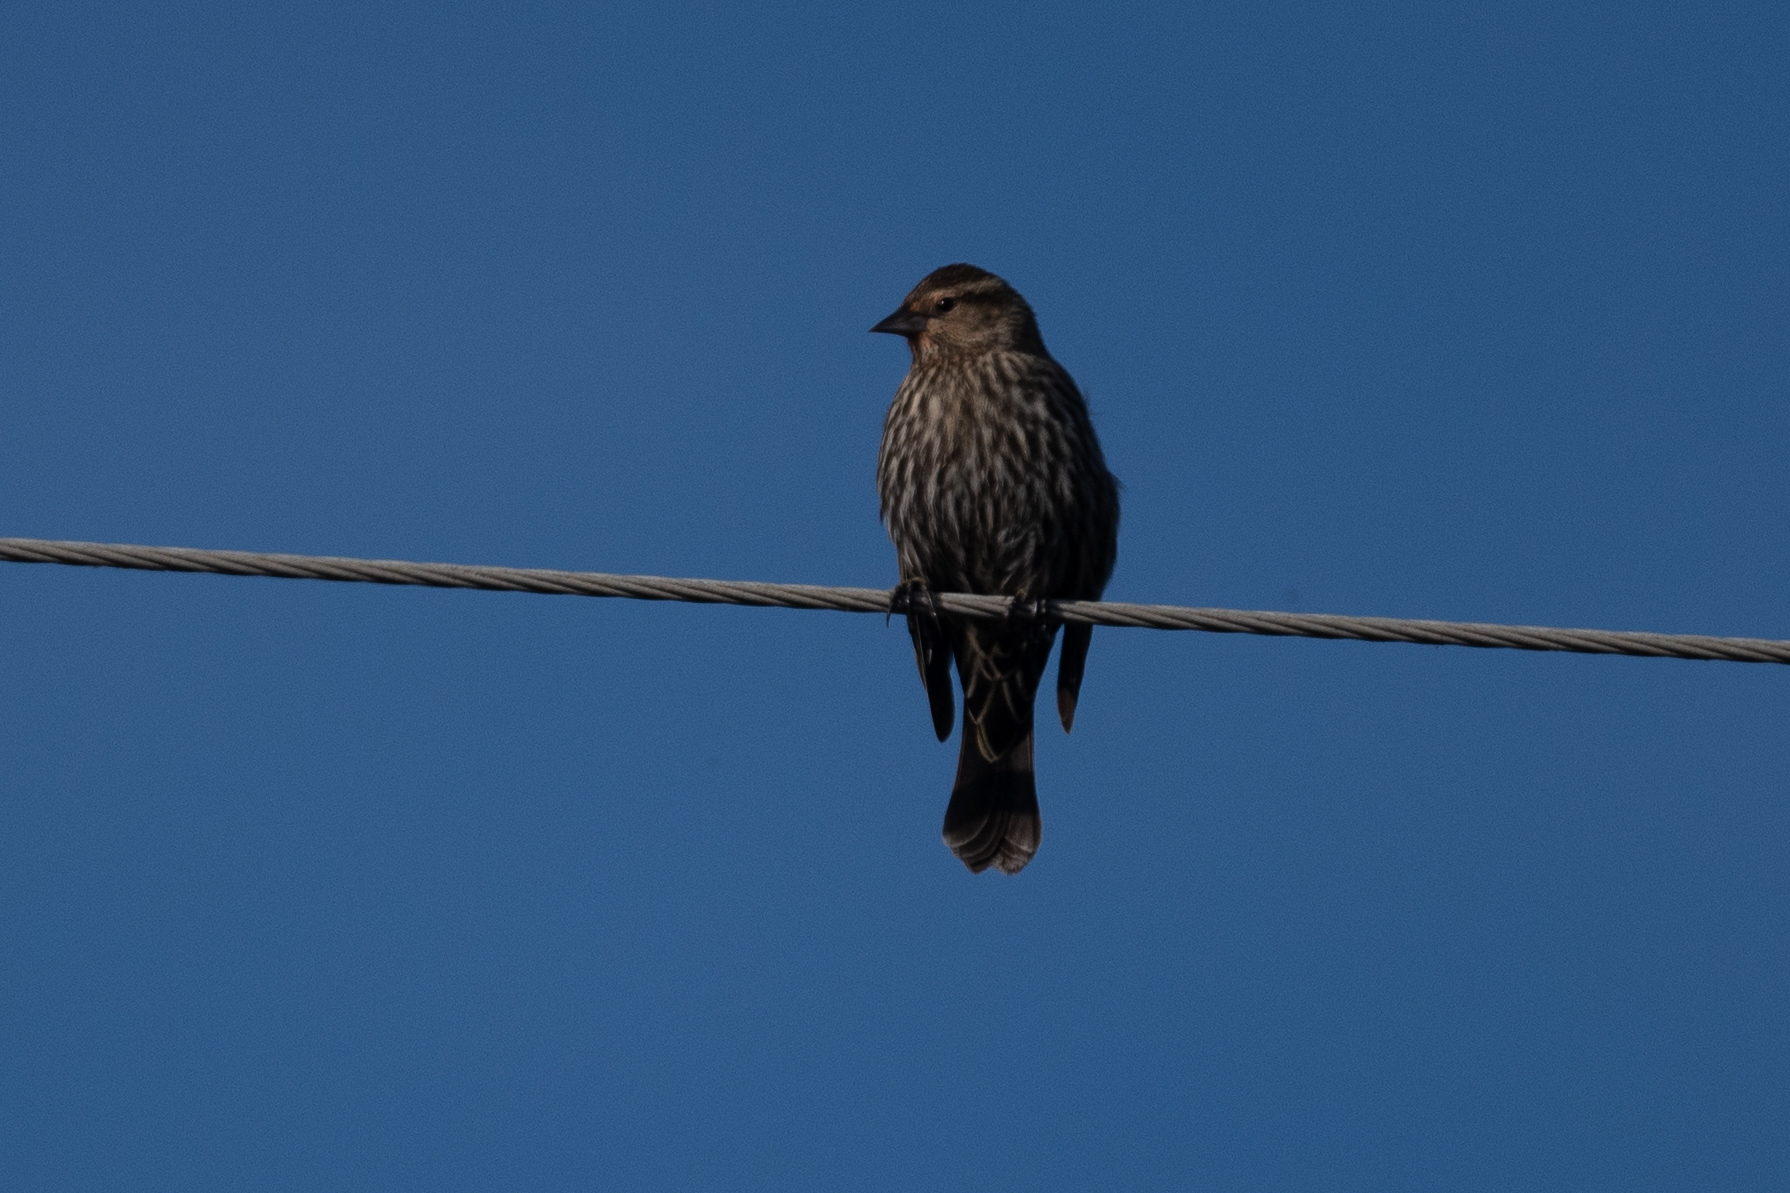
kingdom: Animalia
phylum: Chordata
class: Aves
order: Passeriformes
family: Icteridae
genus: Agelaius
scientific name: Agelaius phoeniceus
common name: Red-winged blackbird
